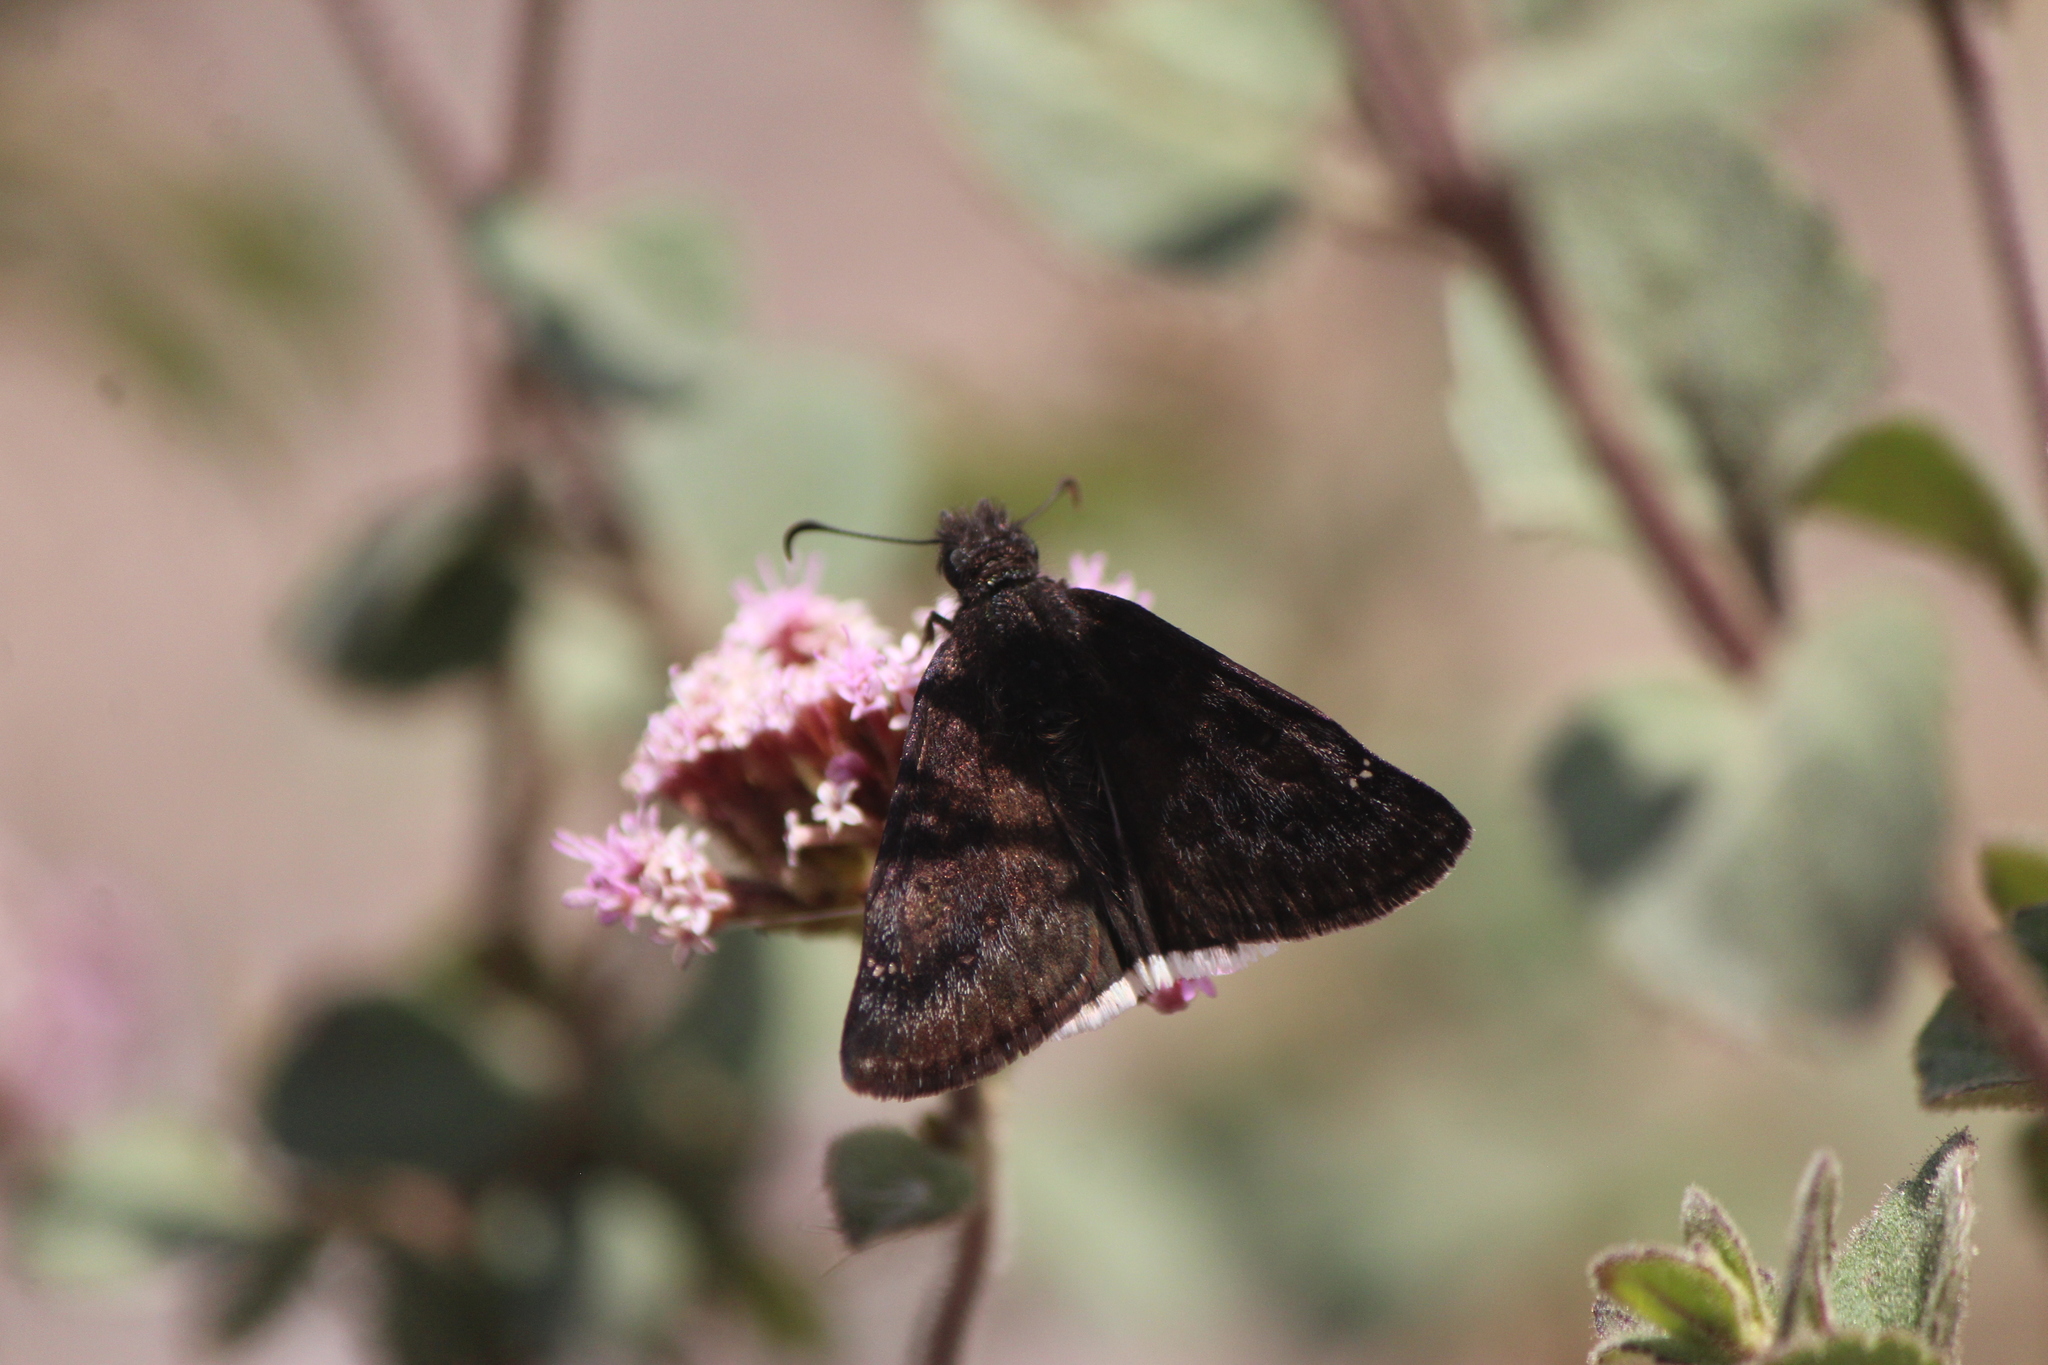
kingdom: Animalia
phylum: Arthropoda
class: Insecta
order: Lepidoptera
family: Hesperiidae
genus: Erynnis
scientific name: Erynnis tristis
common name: Mournful duskywing
